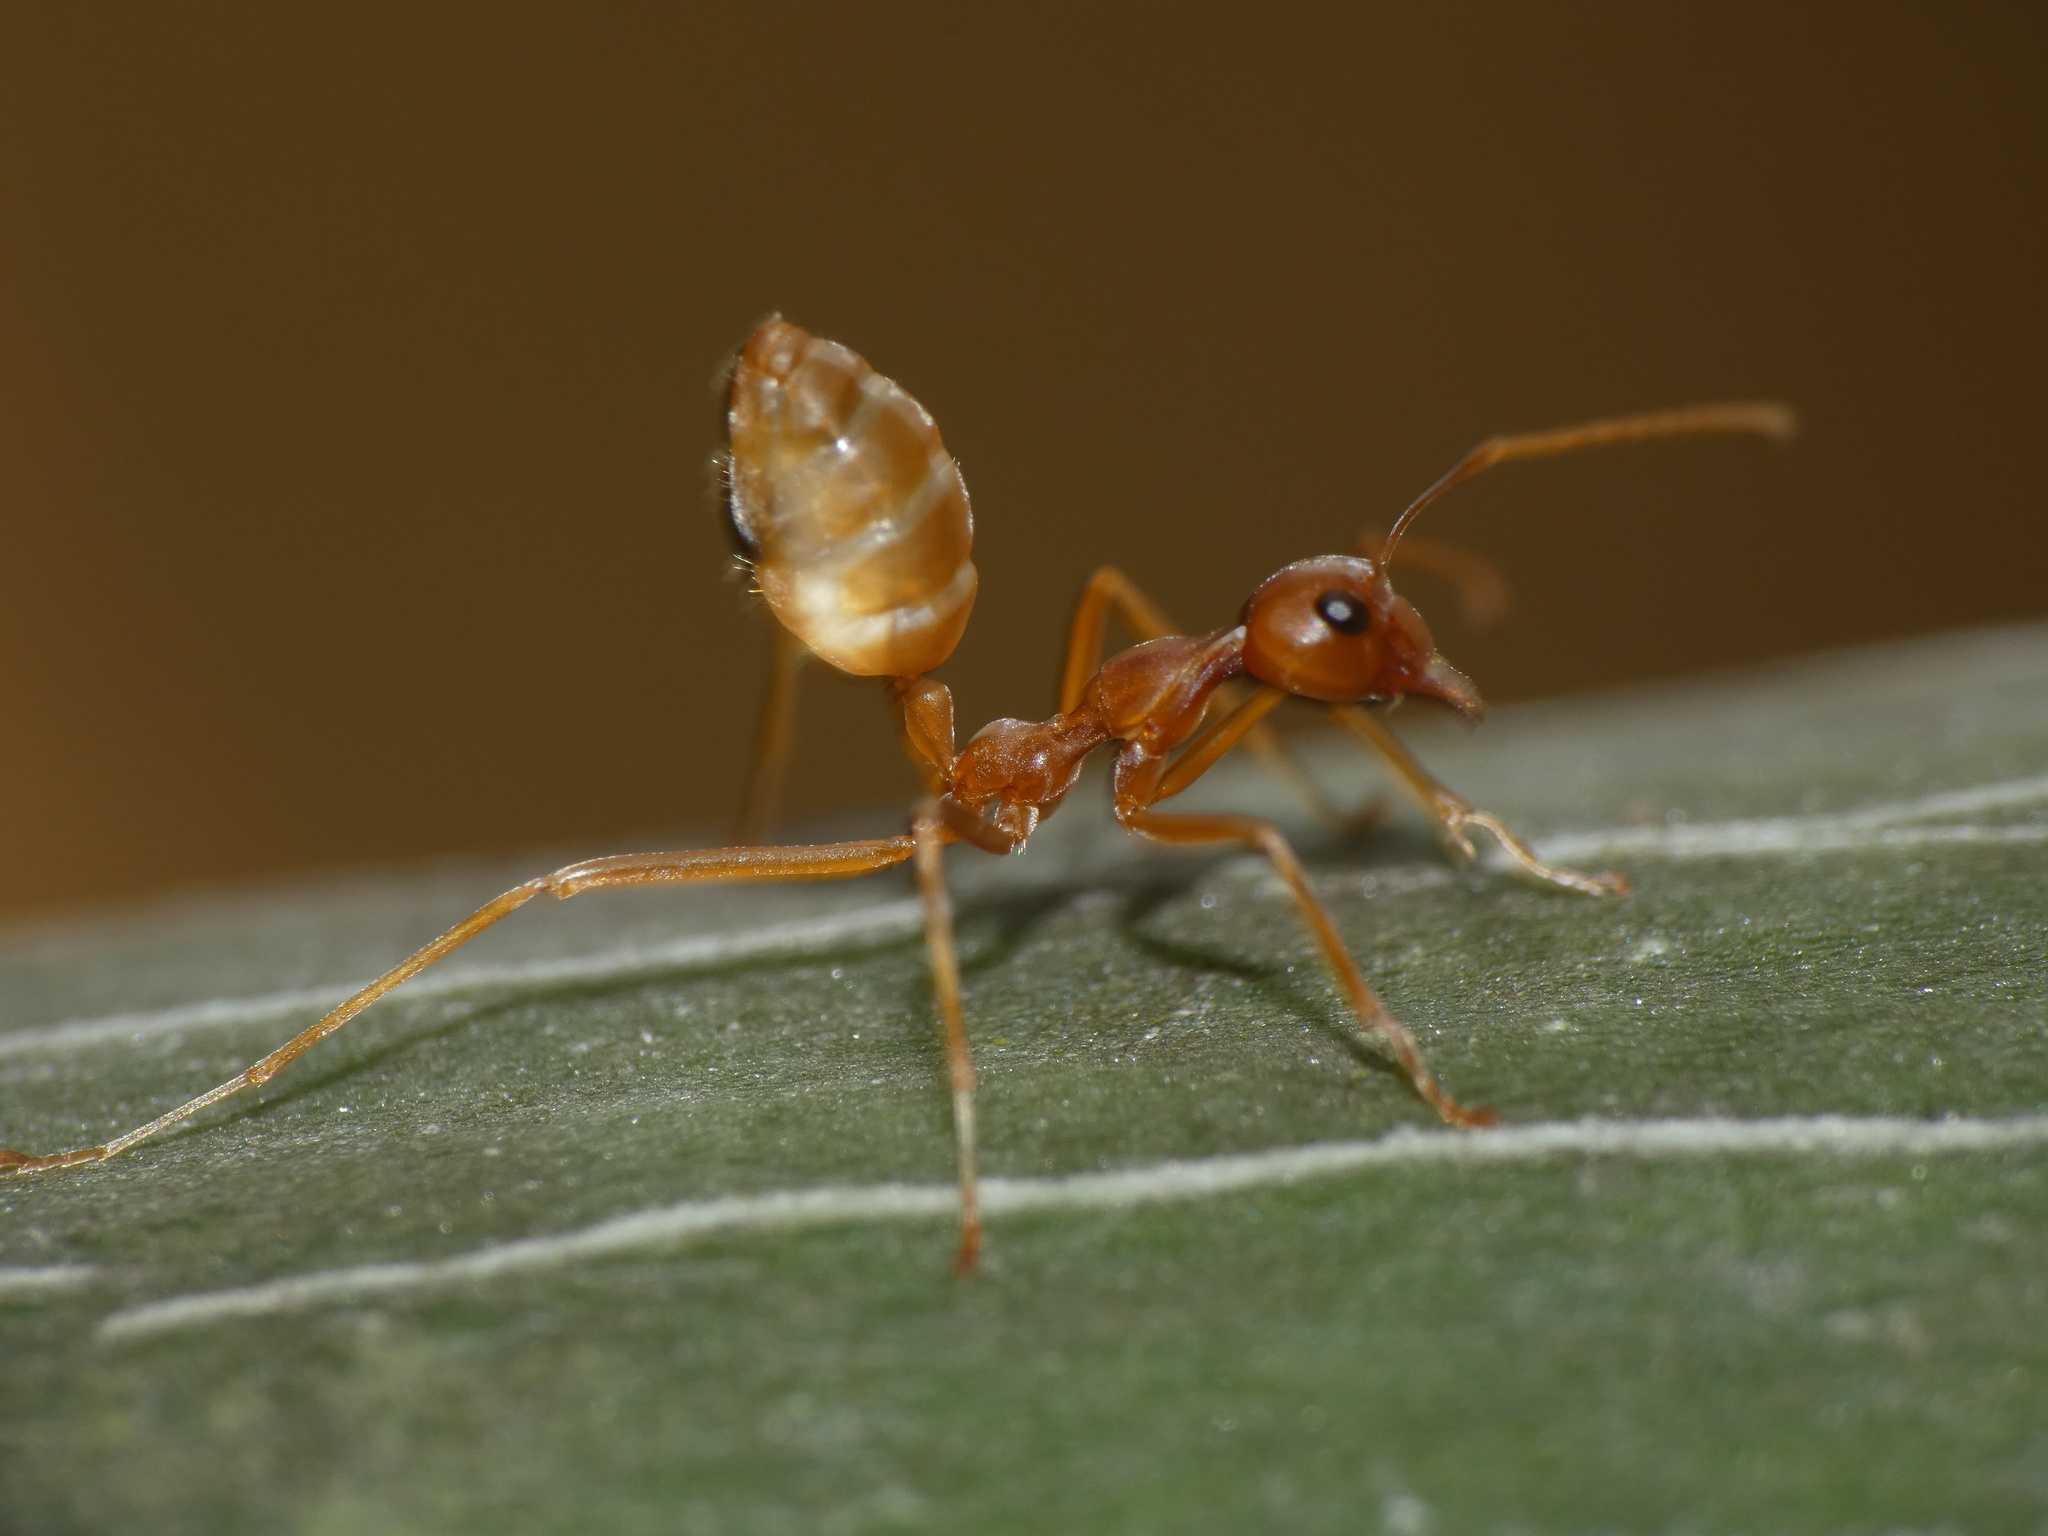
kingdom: Animalia
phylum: Arthropoda
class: Insecta
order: Hymenoptera
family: Formicidae
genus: Oecophylla
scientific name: Oecophylla longinoda
